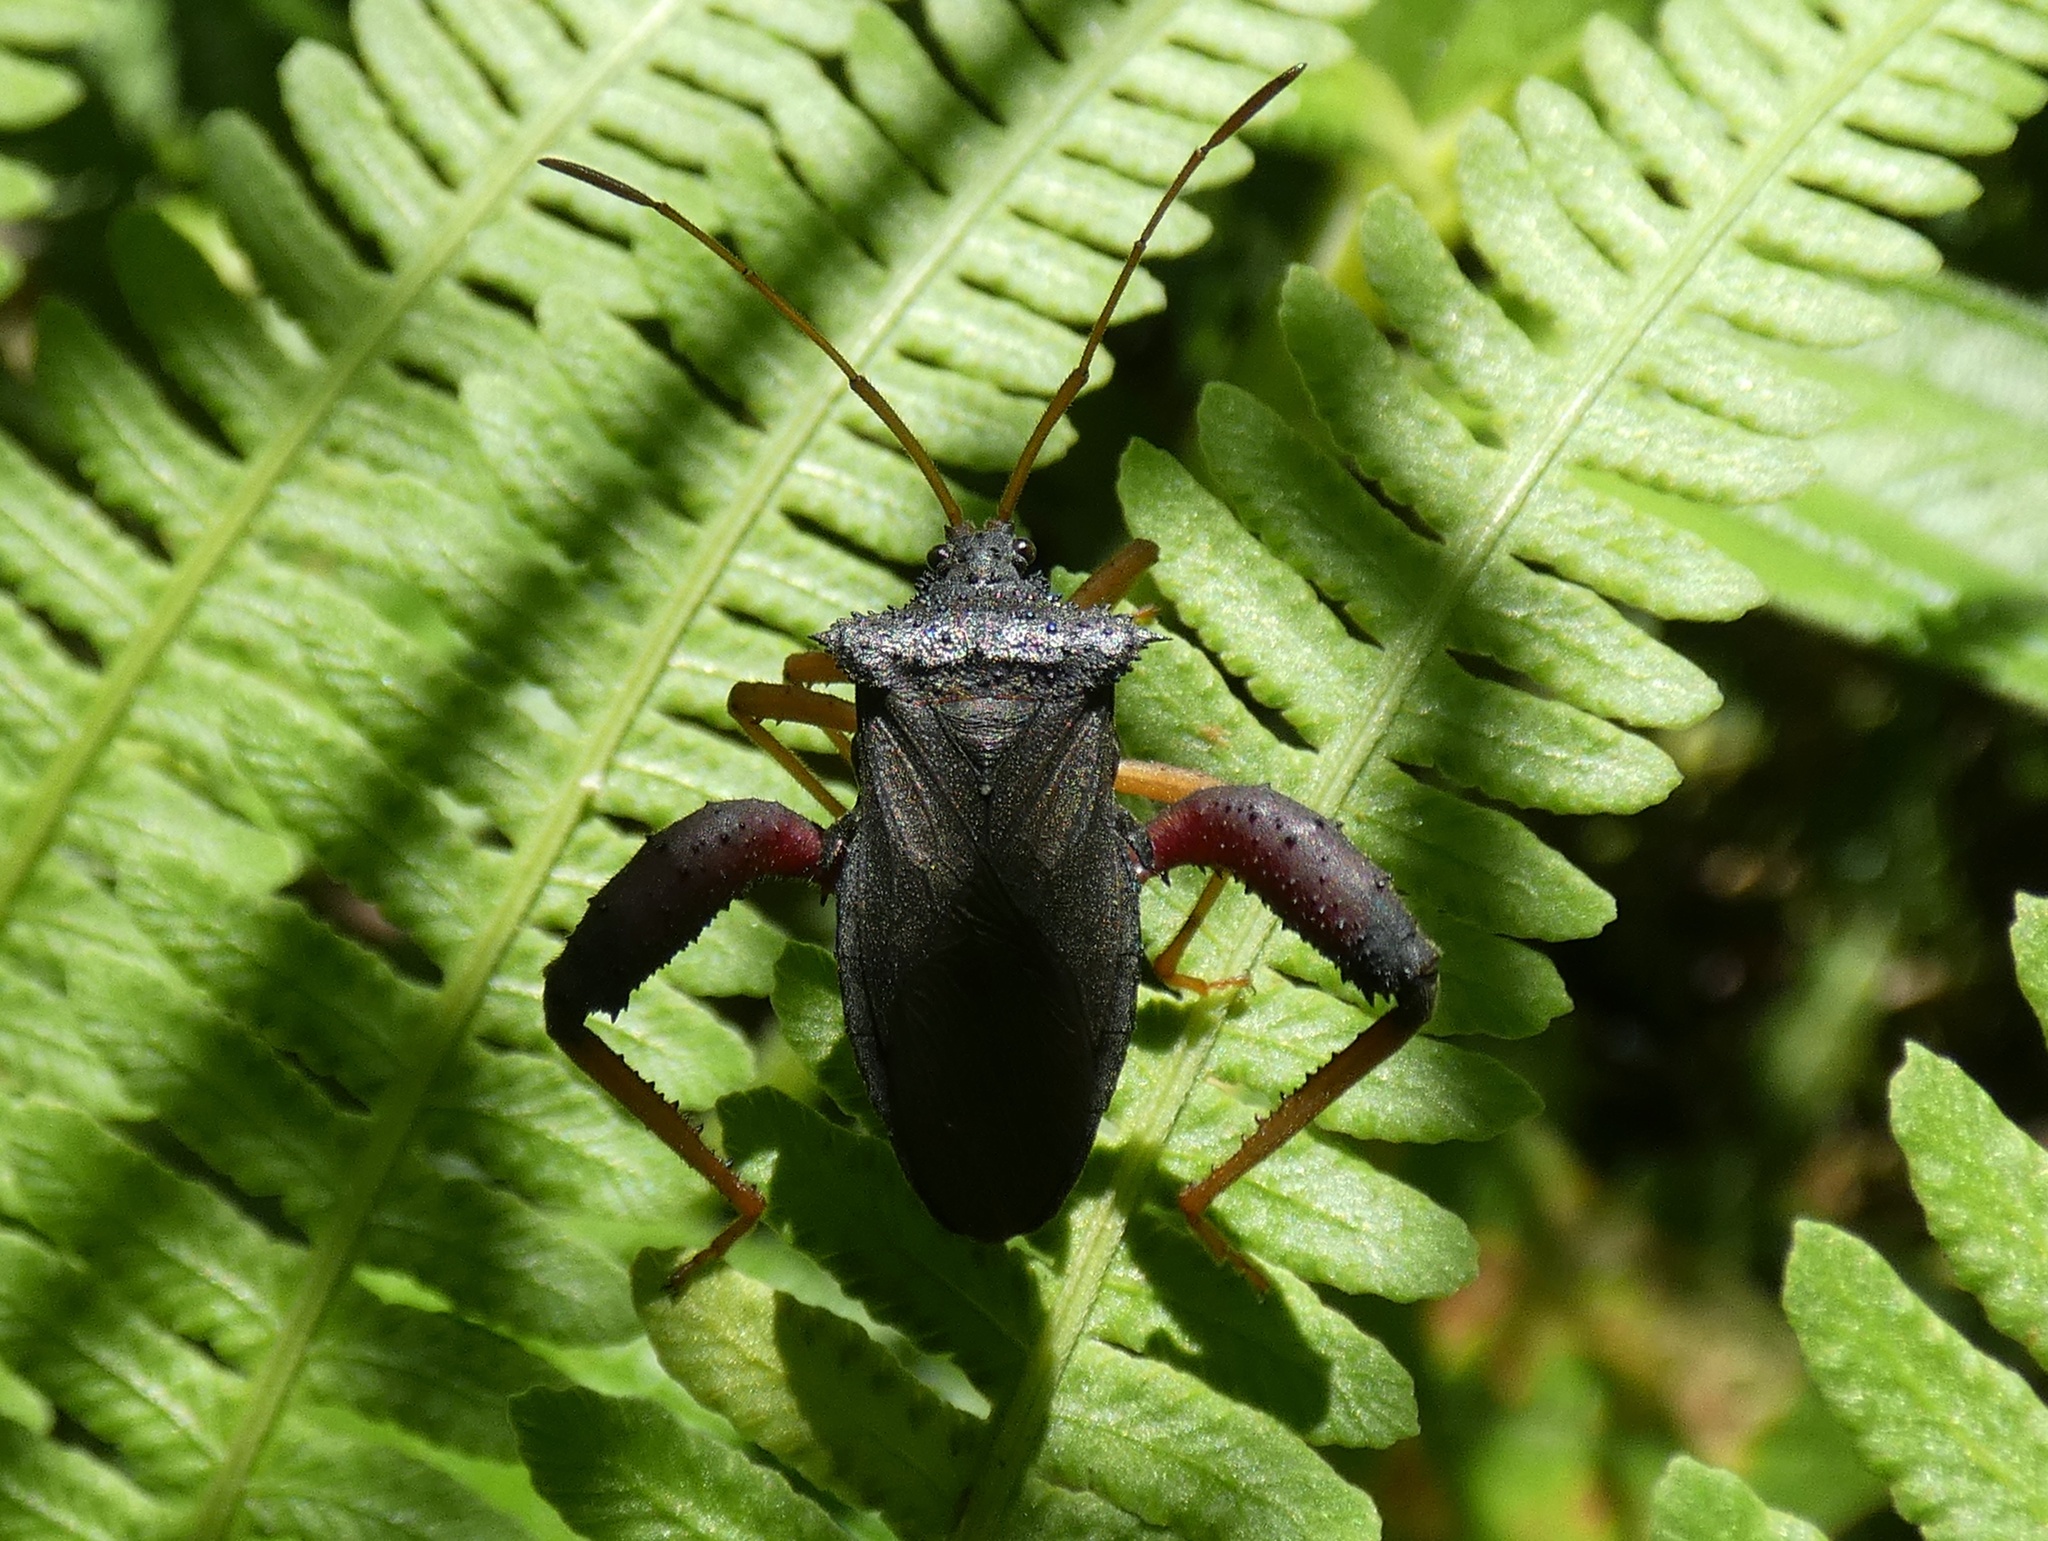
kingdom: Animalia
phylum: Arthropoda
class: Insecta
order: Hemiptera
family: Coreidae
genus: Camptischium
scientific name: Camptischium clavipes
